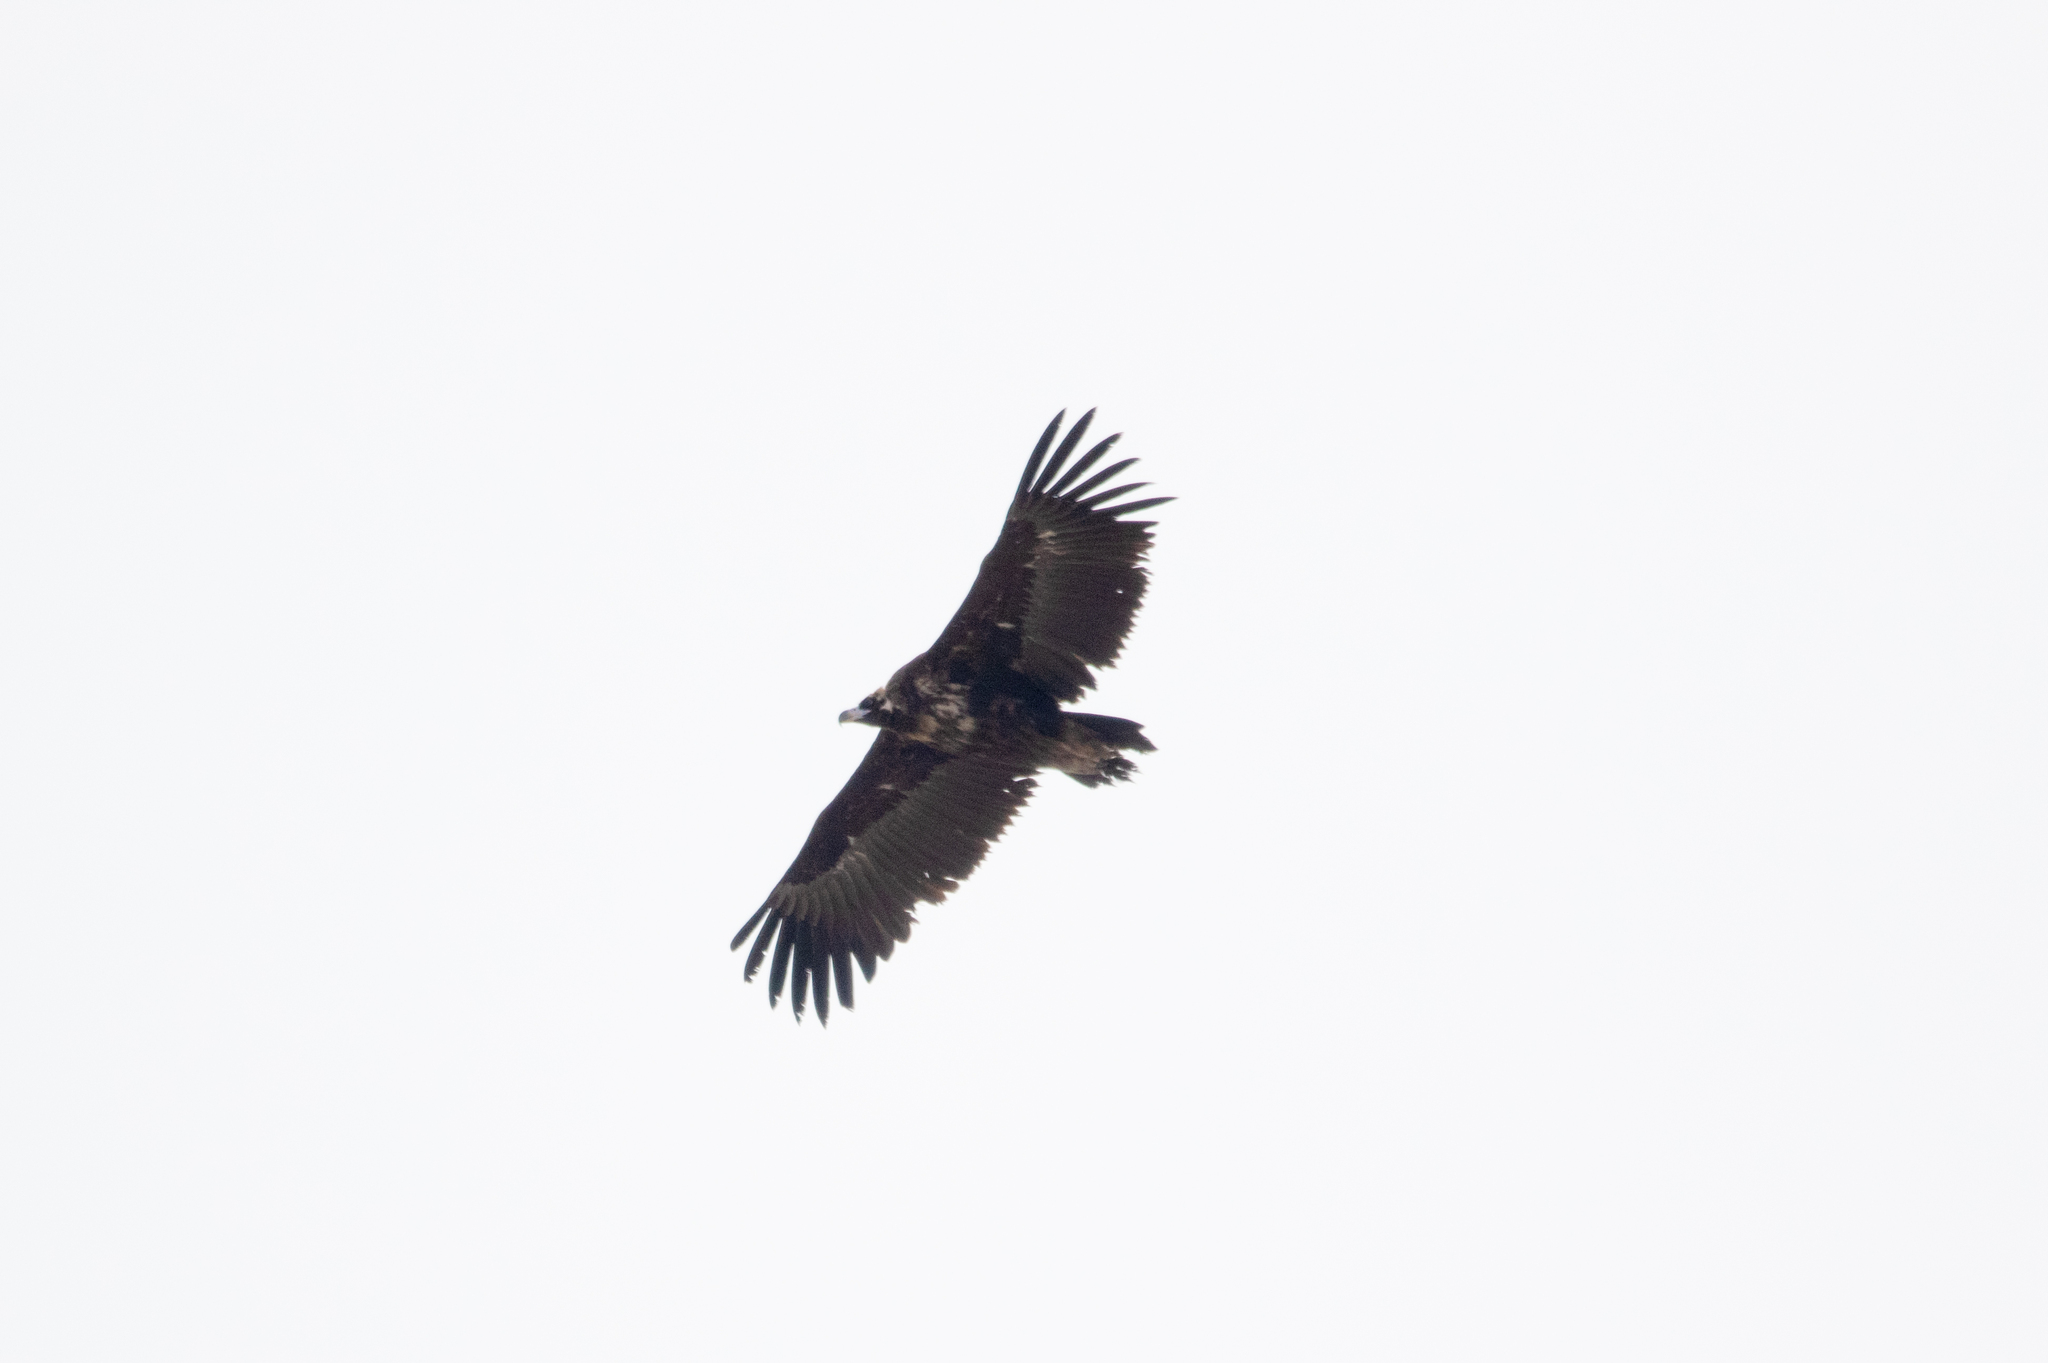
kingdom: Animalia
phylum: Chordata
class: Aves
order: Accipitriformes
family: Accipitridae
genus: Aegypius
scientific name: Aegypius monachus
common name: Cinereous vulture
